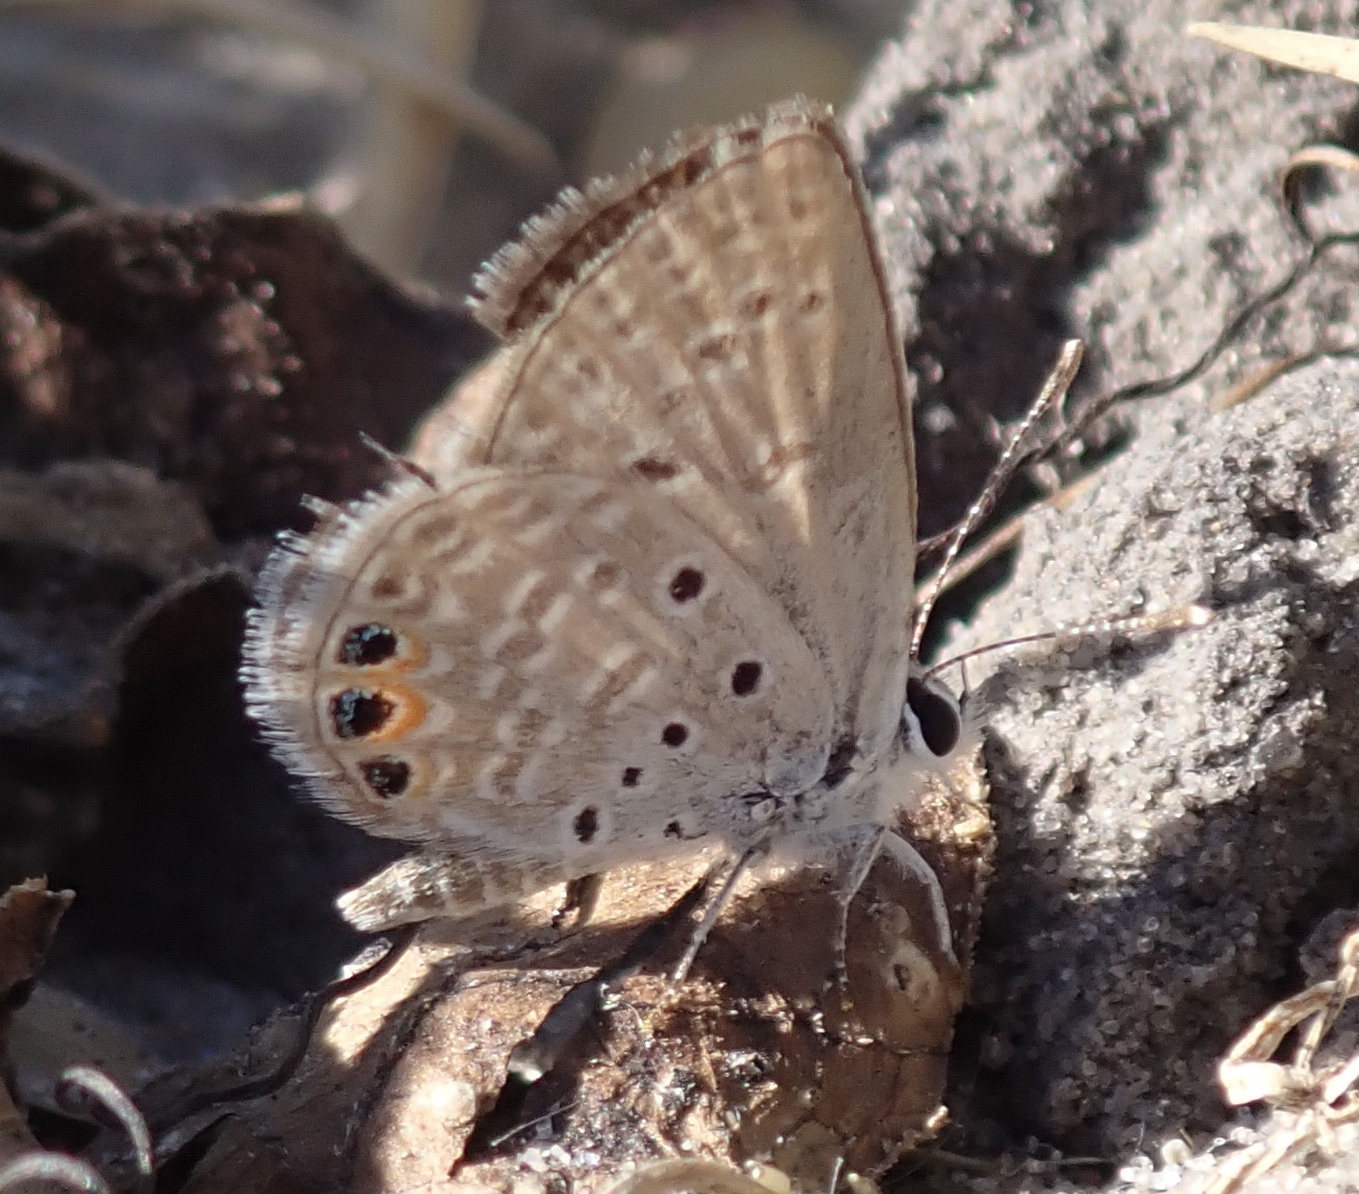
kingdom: Animalia
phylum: Arthropoda
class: Insecta
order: Lepidoptera
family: Lycaenidae
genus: Freyeria
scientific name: Freyeria trochylus
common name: Grass jewel
